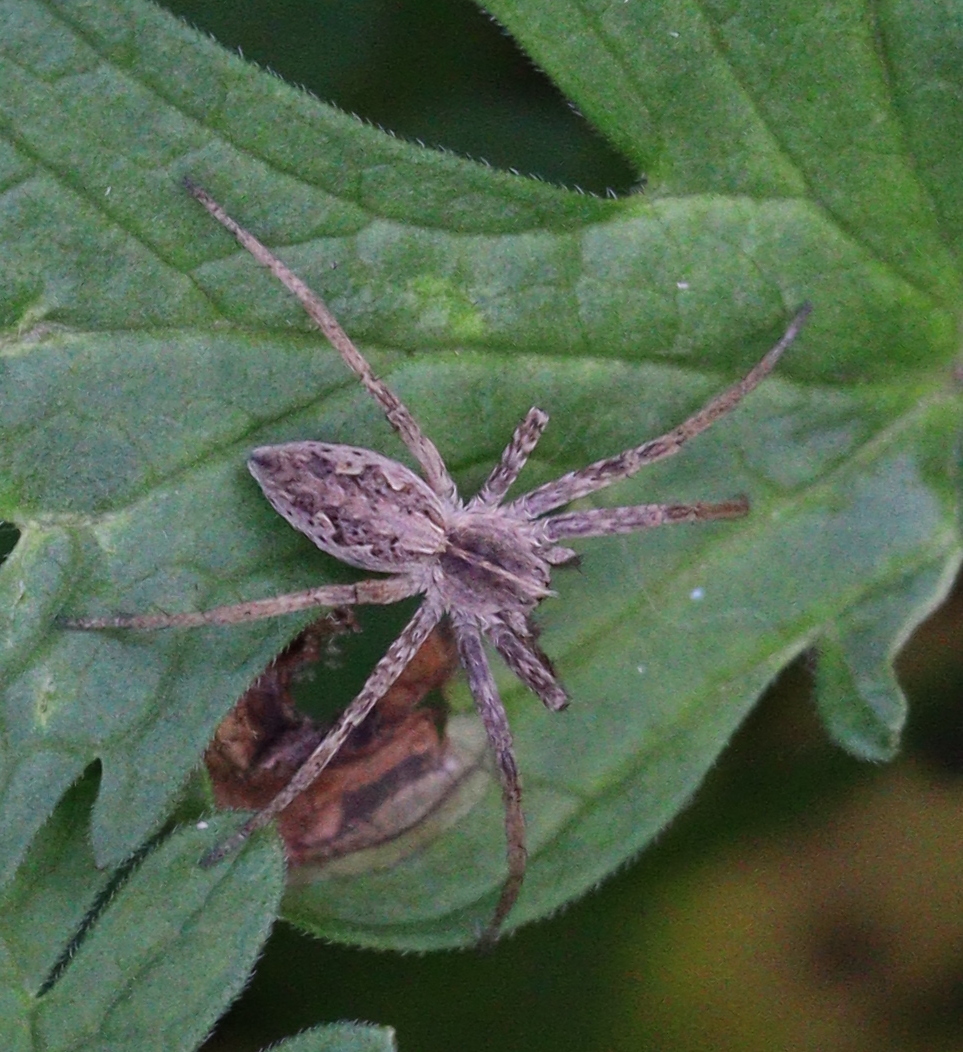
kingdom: Animalia
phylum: Arthropoda
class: Arachnida
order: Araneae
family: Pisauridae
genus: Pisaura
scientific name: Pisaura mirabilis
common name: Tent spider
